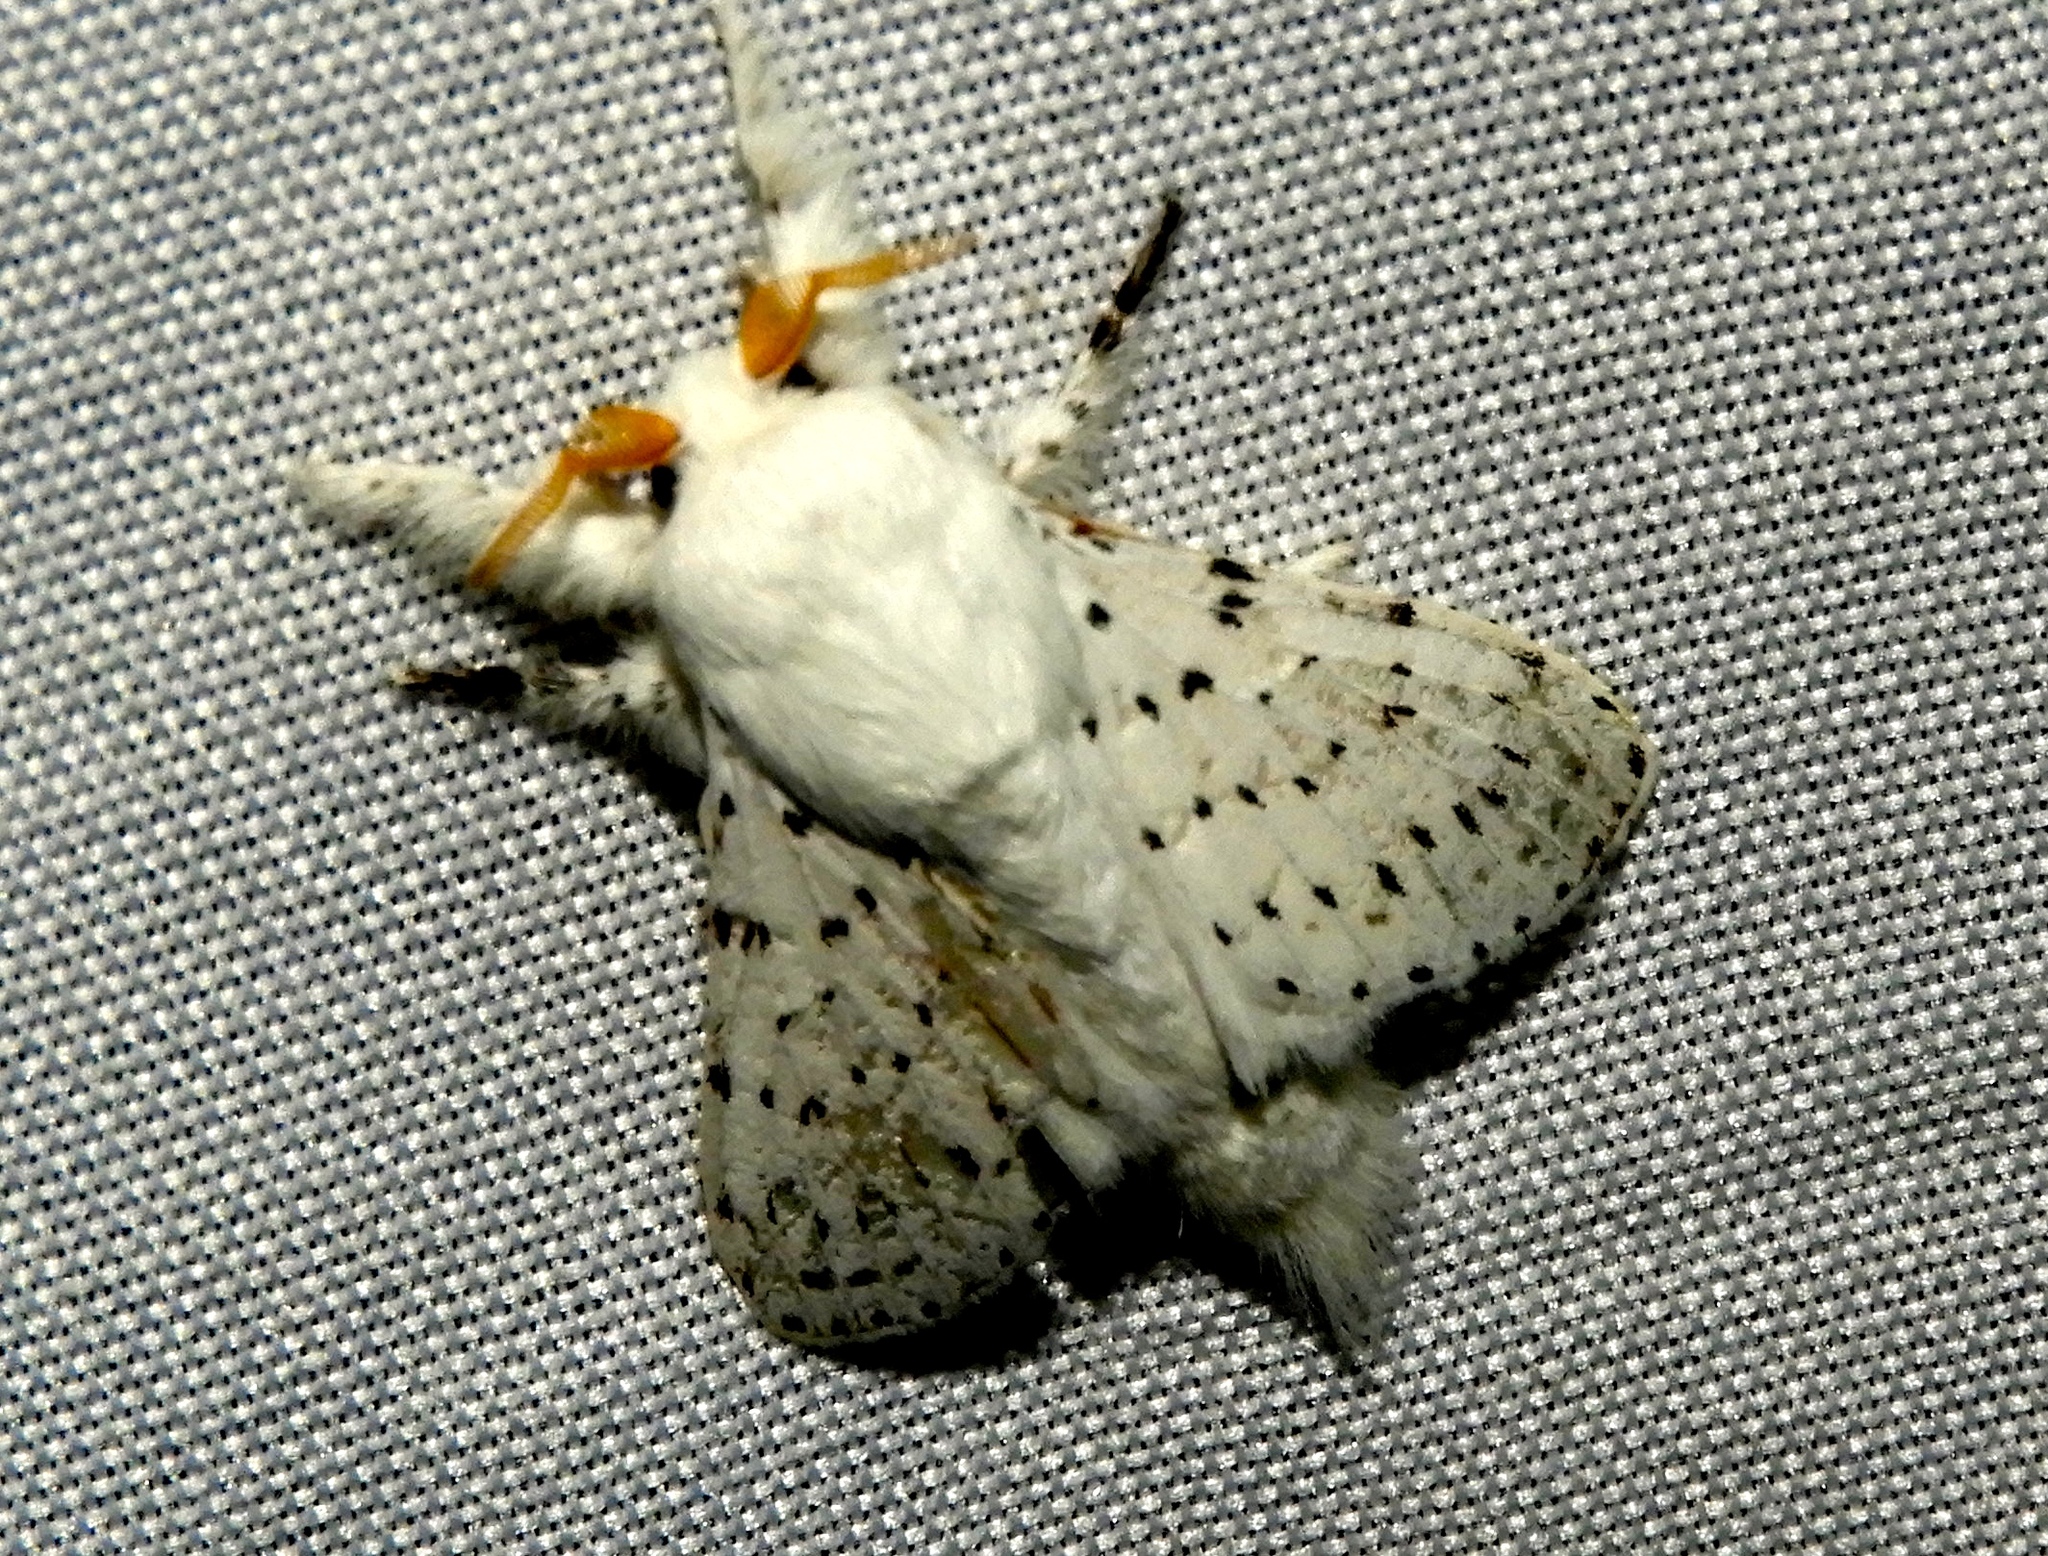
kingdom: Animalia
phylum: Arthropoda
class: Insecta
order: Lepidoptera
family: Lasiocampidae
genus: Artace
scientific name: Artace
